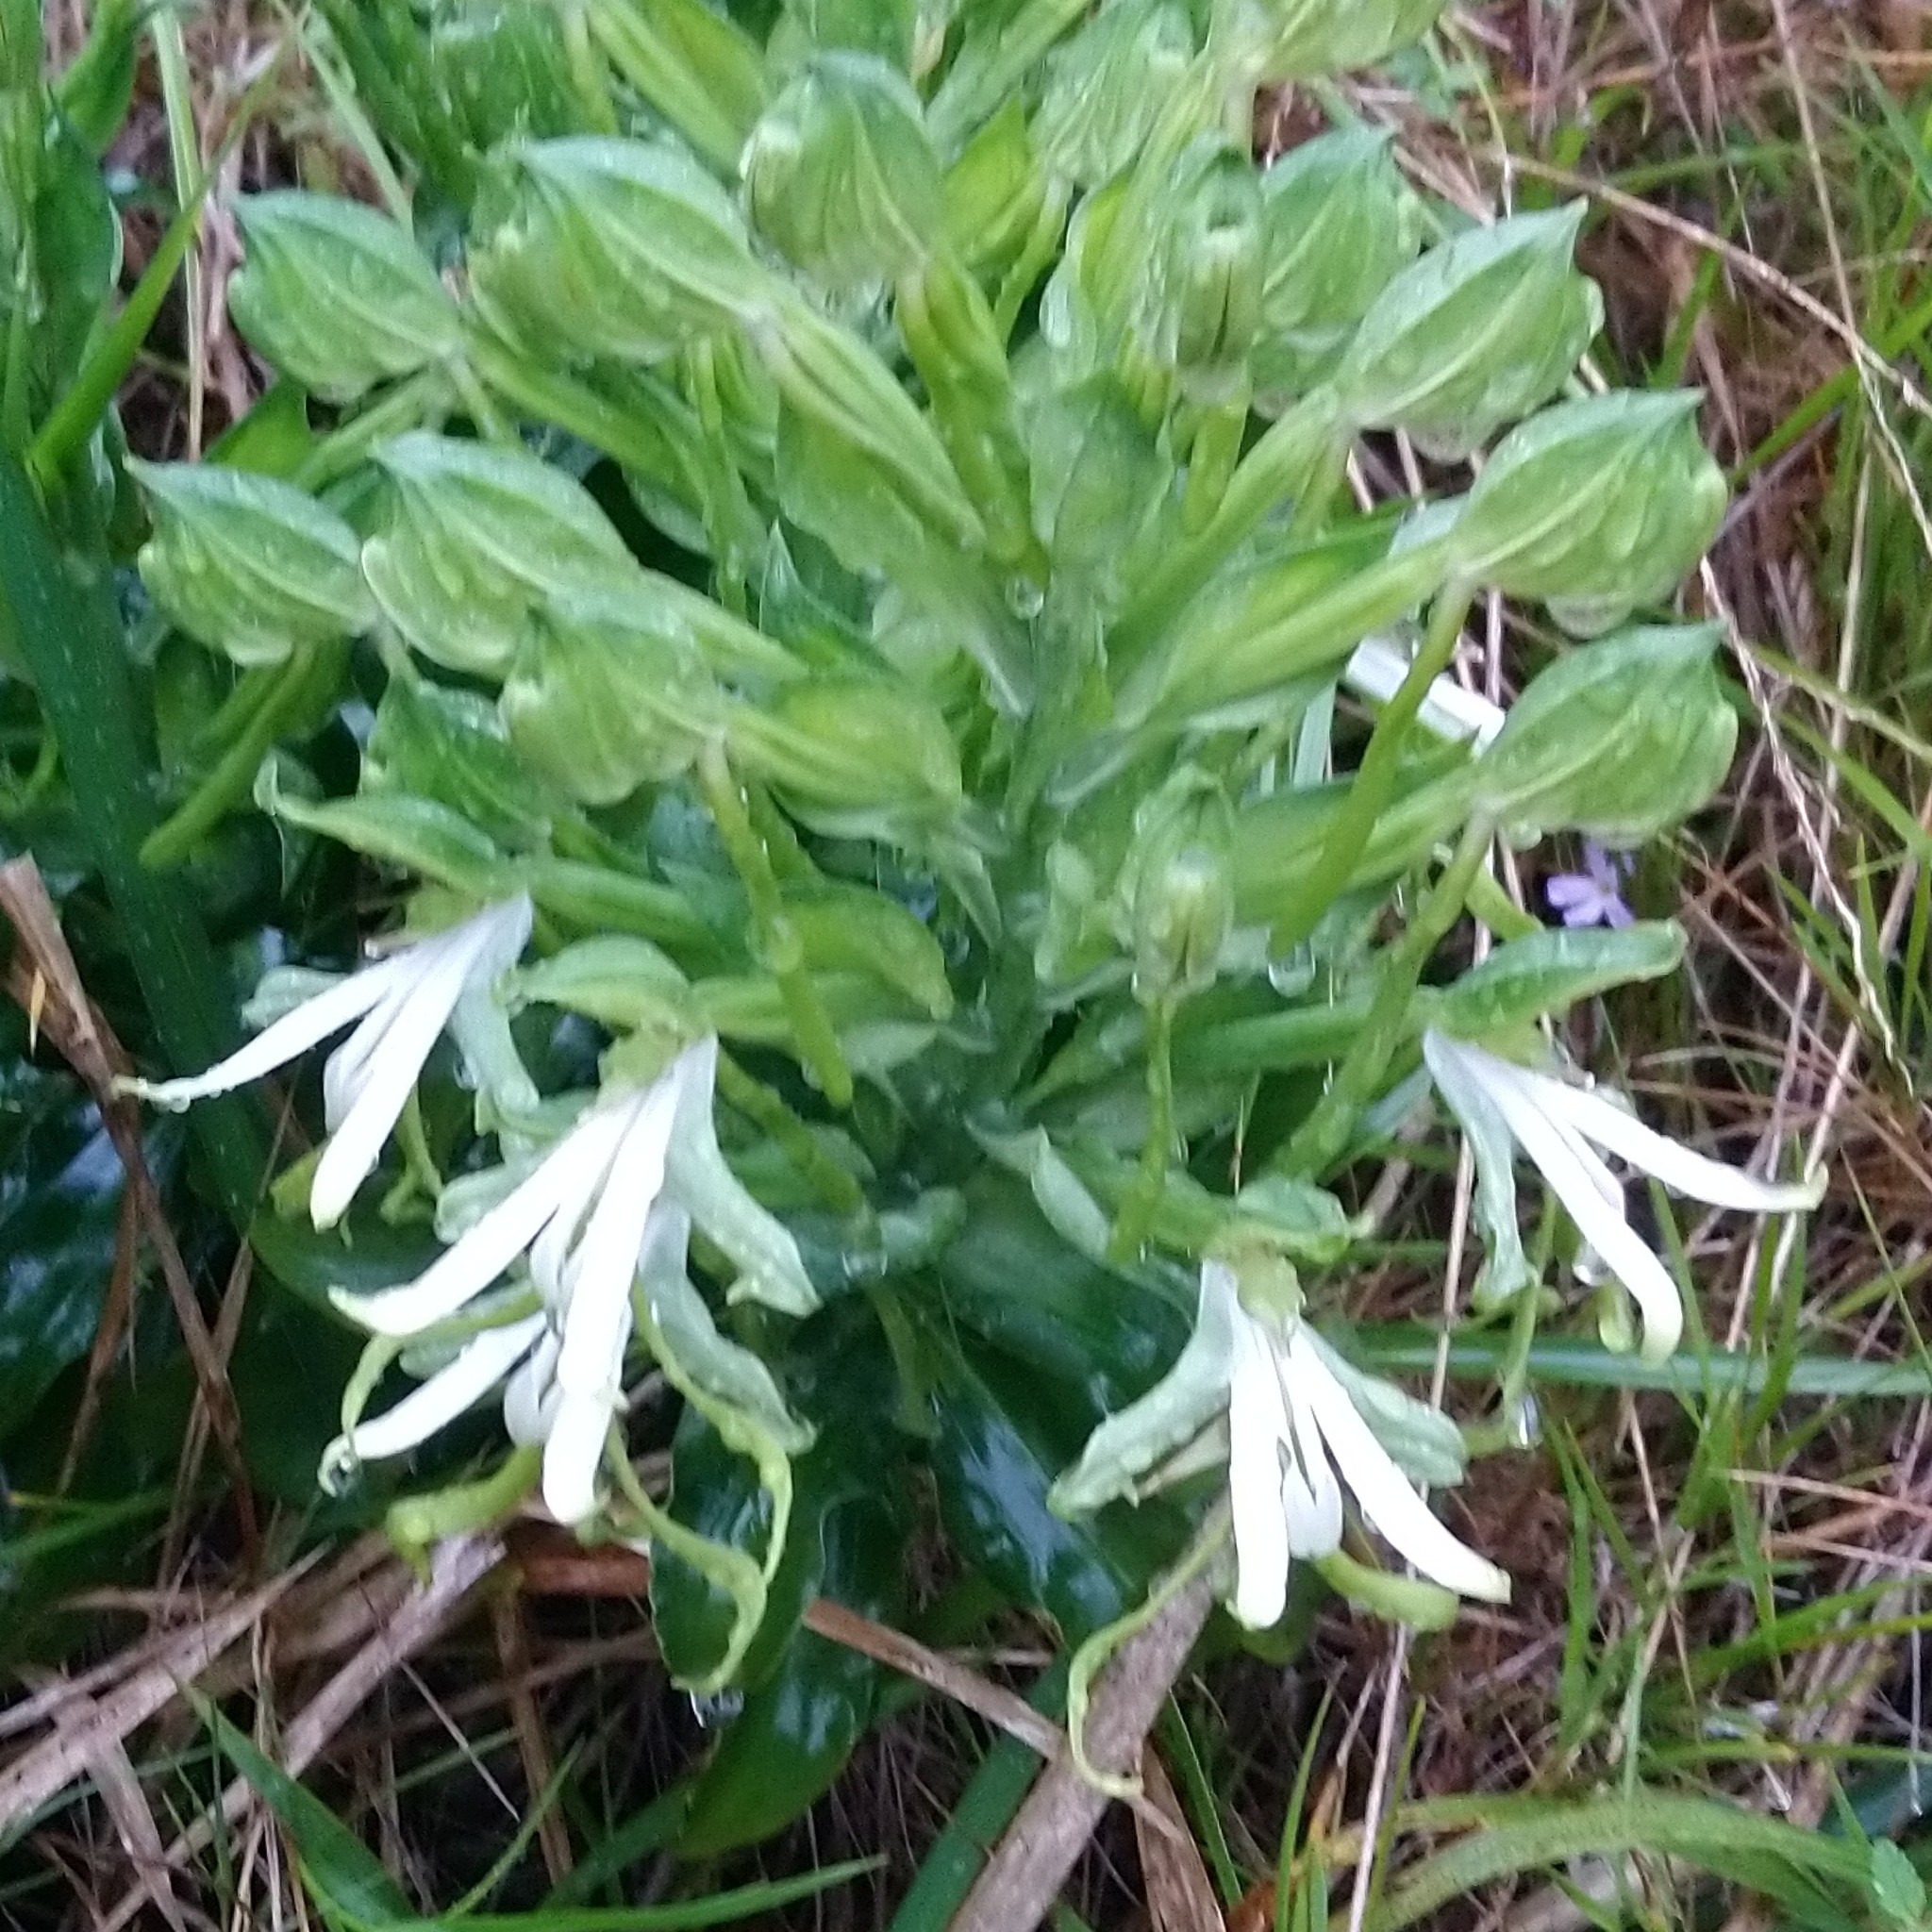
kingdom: Plantae
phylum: Tracheophyta
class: Liliopsida
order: Asparagales
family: Orchidaceae
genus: Bonatea
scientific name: Bonatea speciosa
